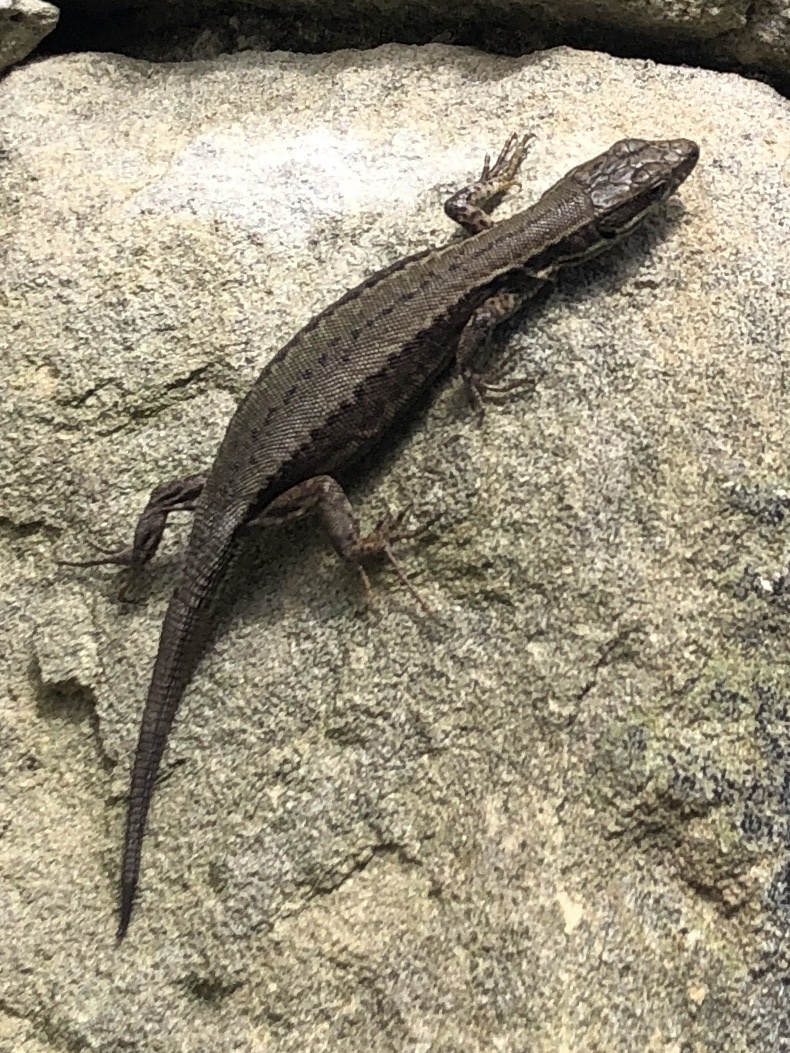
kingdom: Animalia
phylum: Chordata
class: Squamata
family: Lacertidae
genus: Podarcis
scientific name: Podarcis muralis
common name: Common wall lizard
